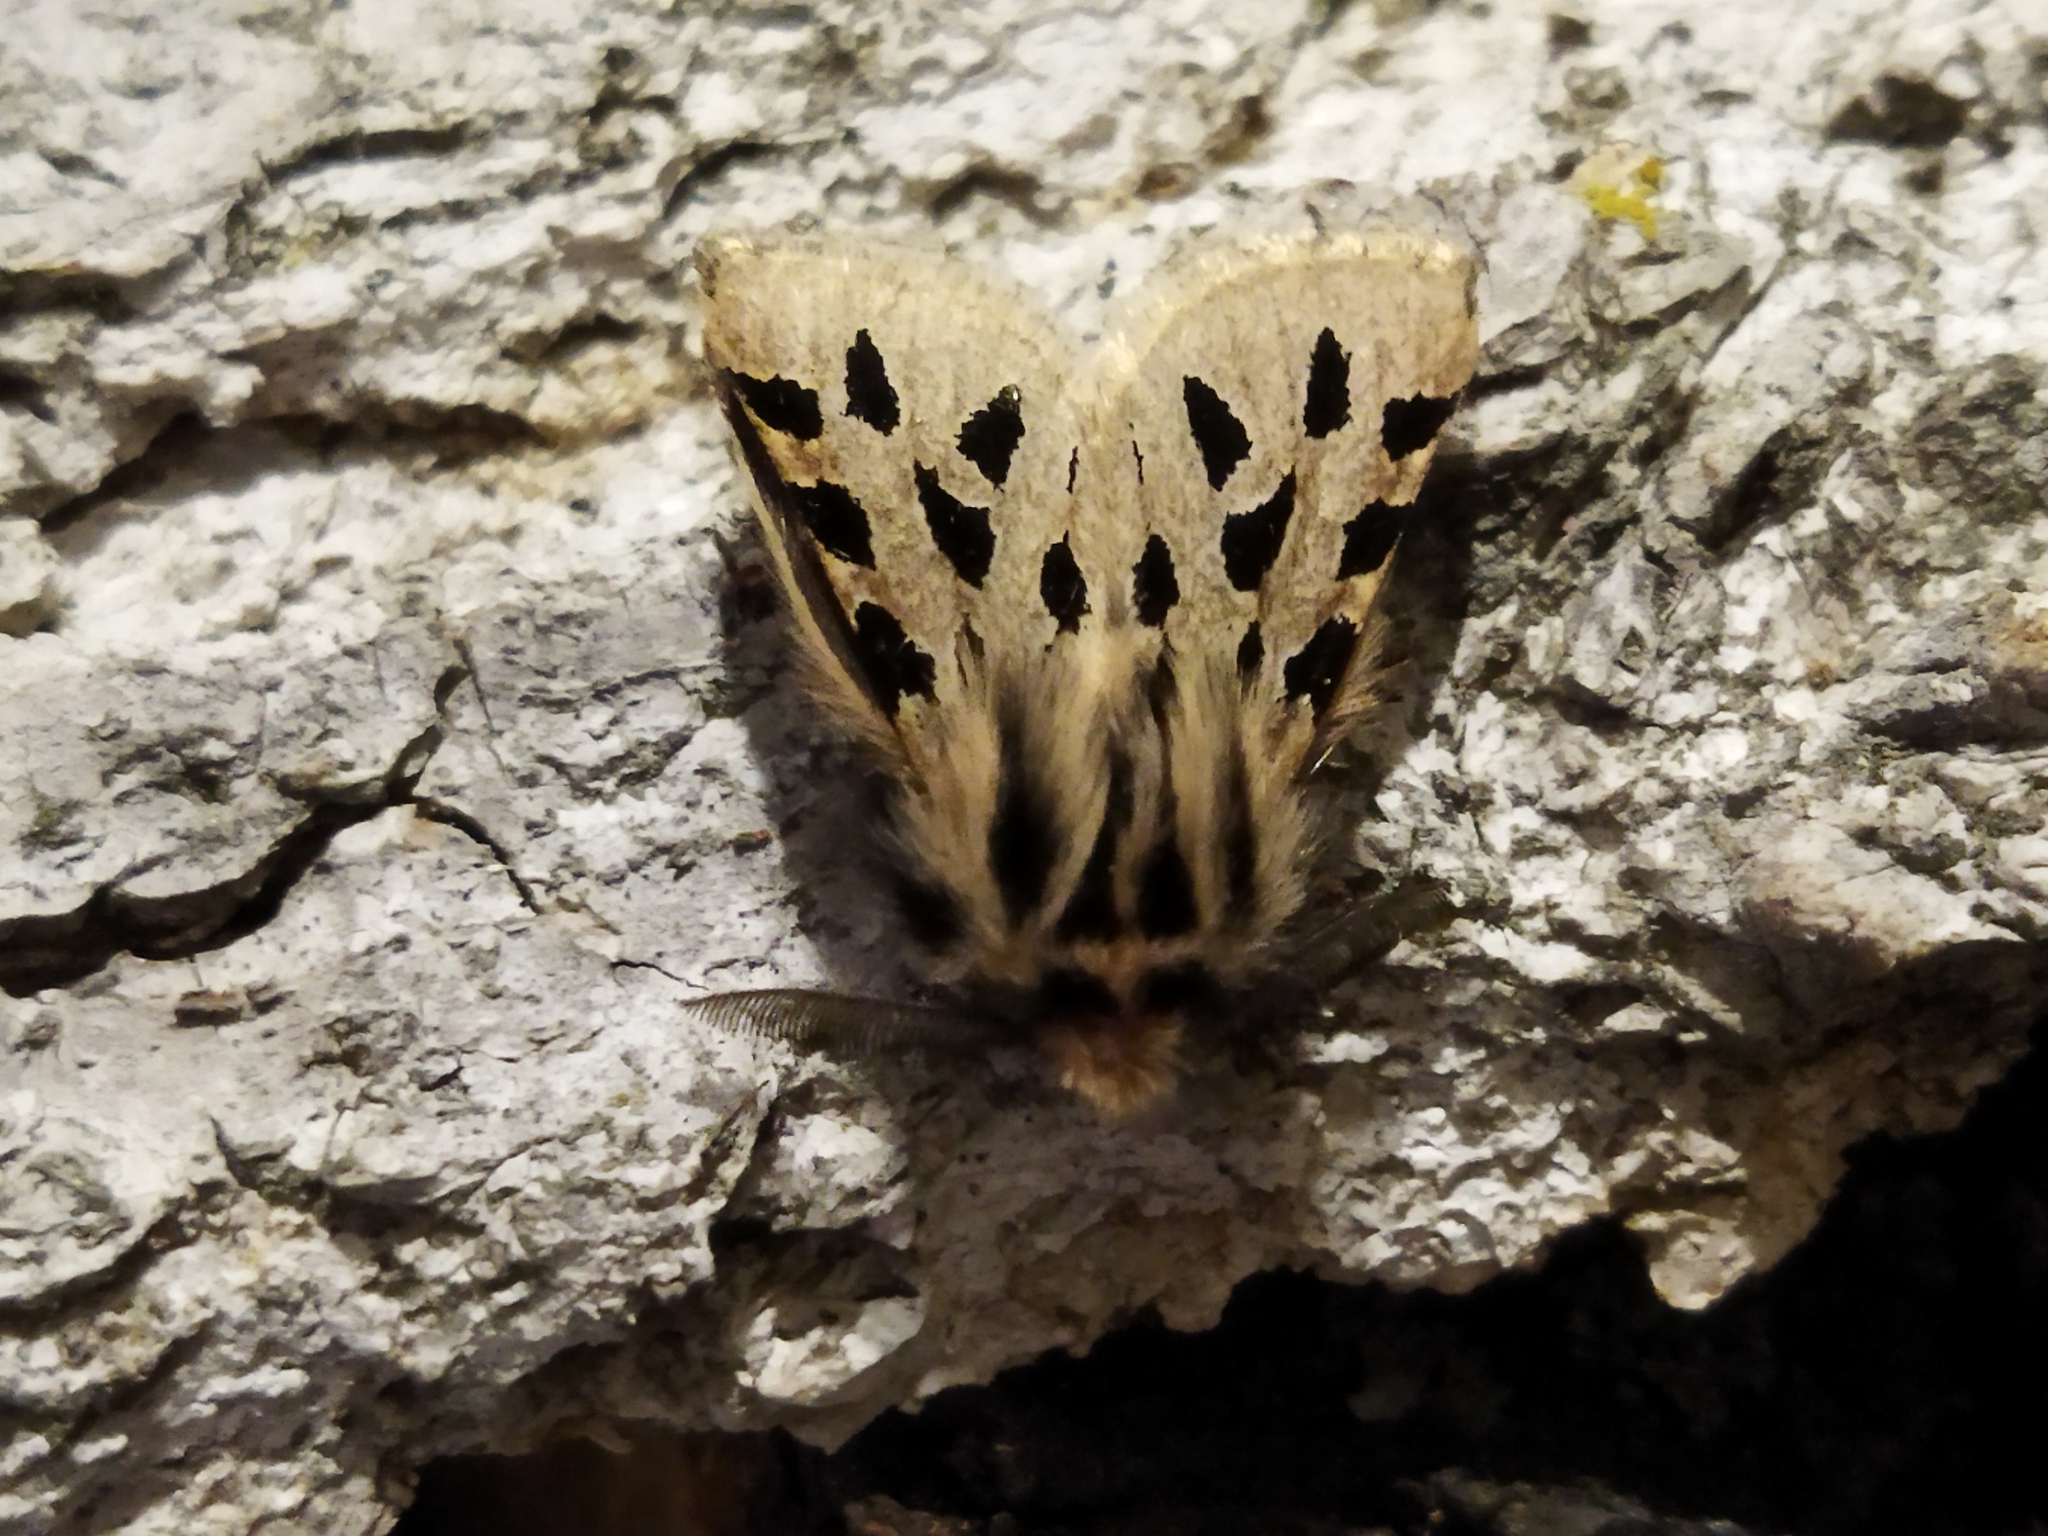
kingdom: Animalia
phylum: Arthropoda
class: Insecta
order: Lepidoptera
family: Erebidae
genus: Ocnogyna
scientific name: Ocnogyna parasita
